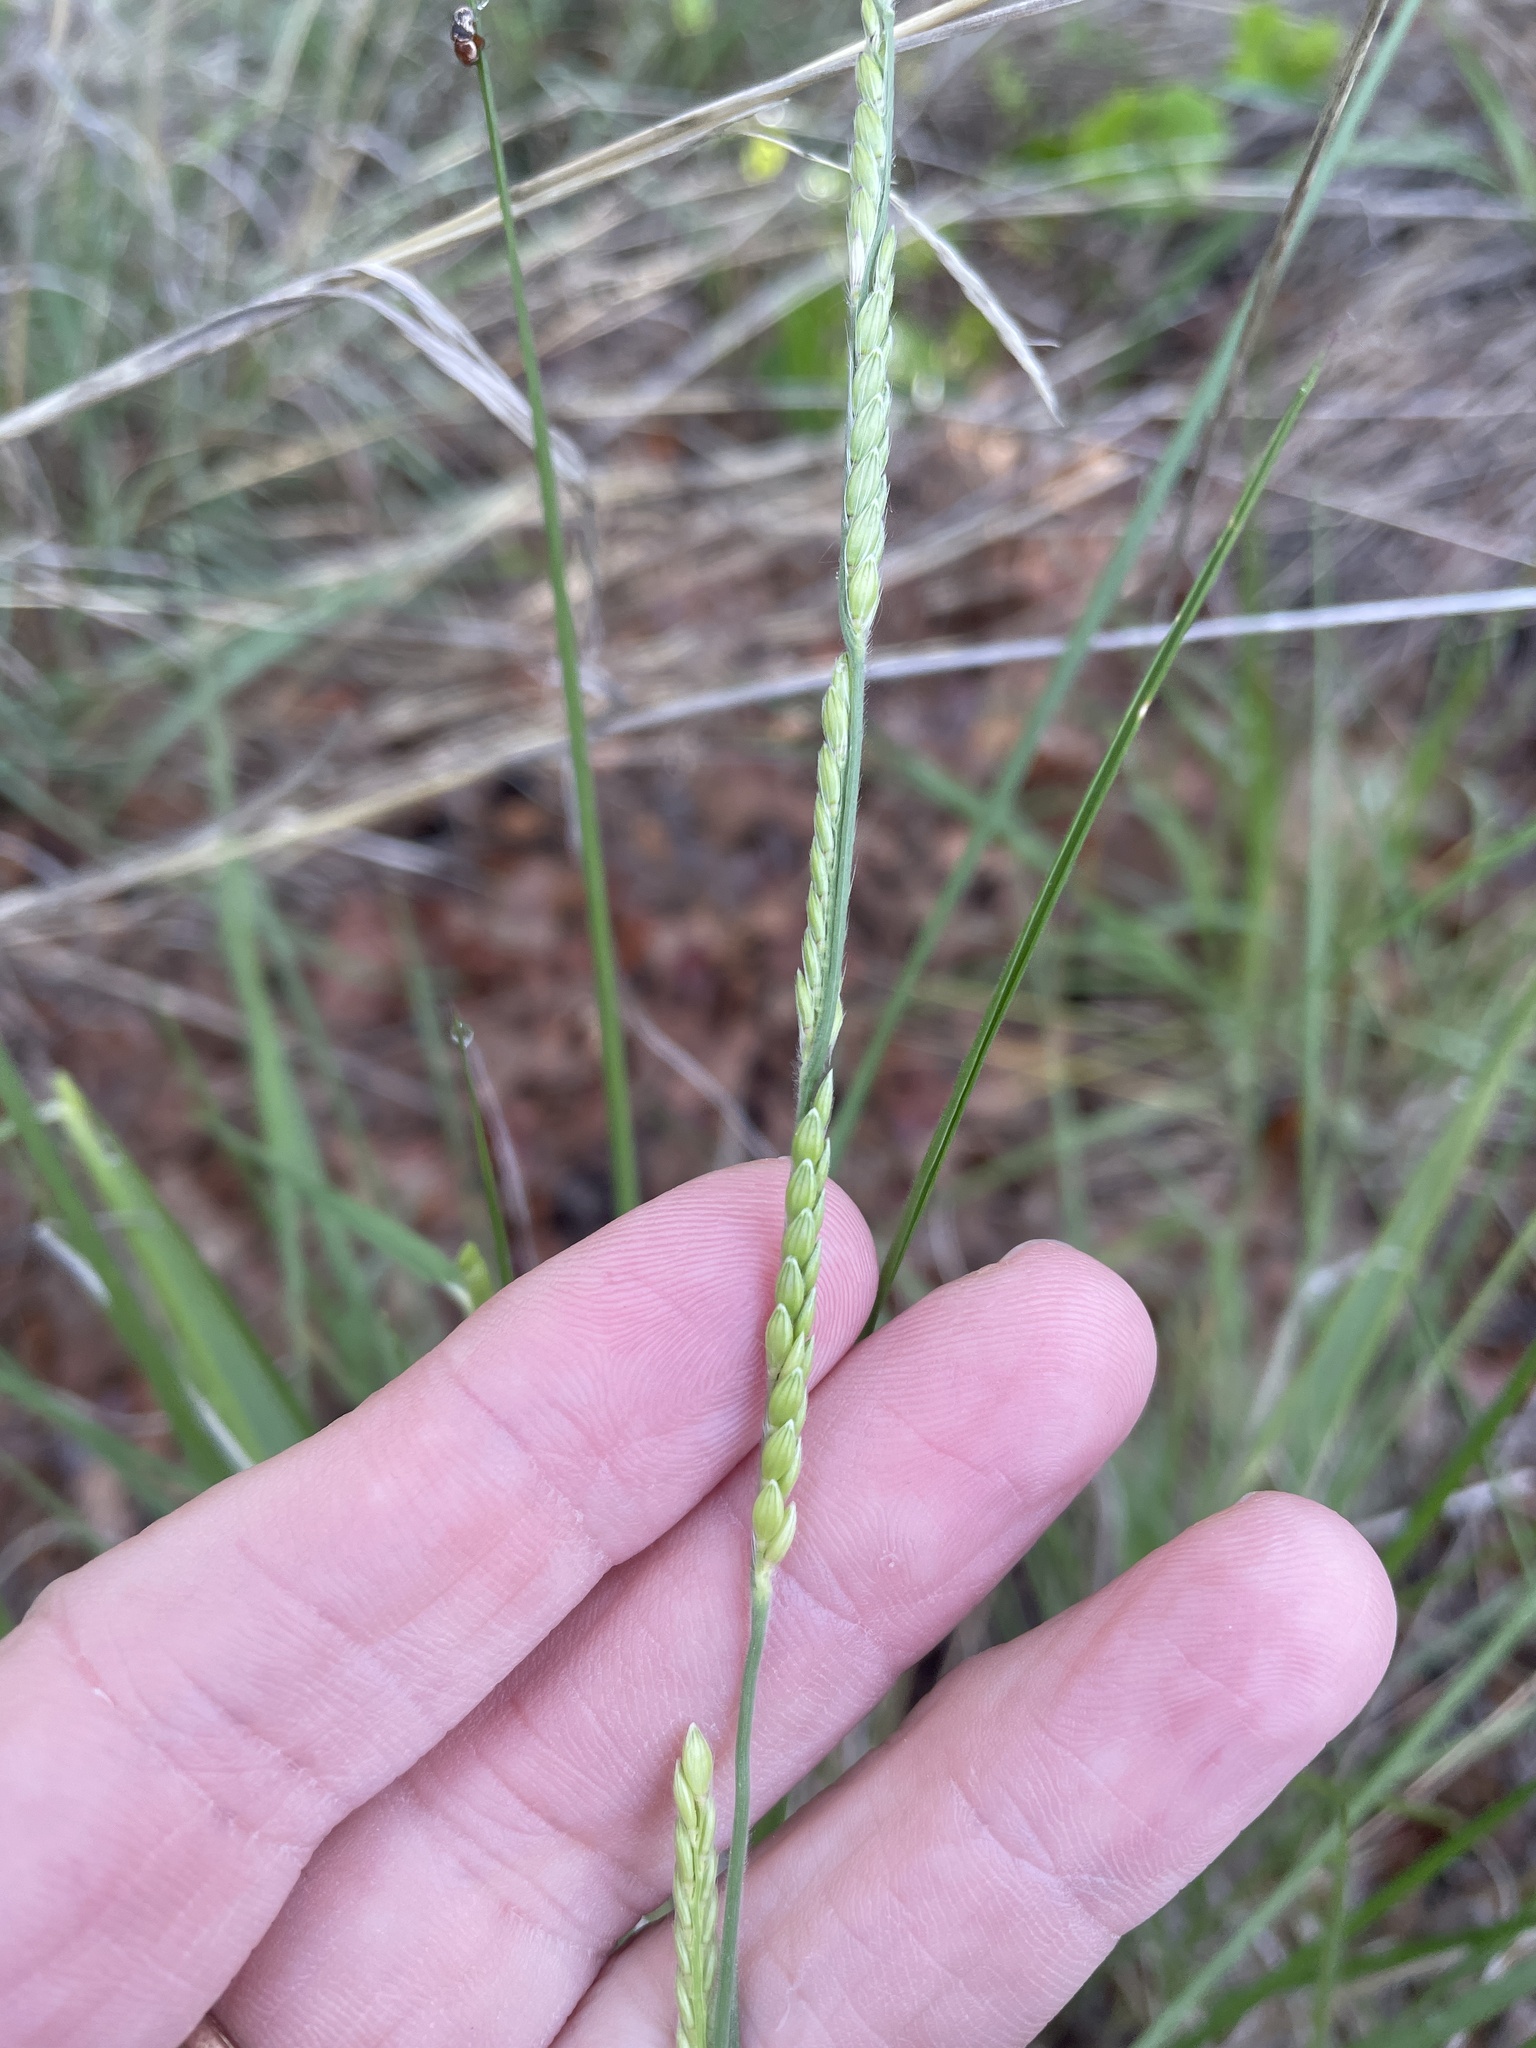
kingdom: Plantae
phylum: Tracheophyta
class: Liliopsida
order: Poales
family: Poaceae
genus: Eriochloa
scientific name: Eriochloa sericea
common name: Texas cup grass
